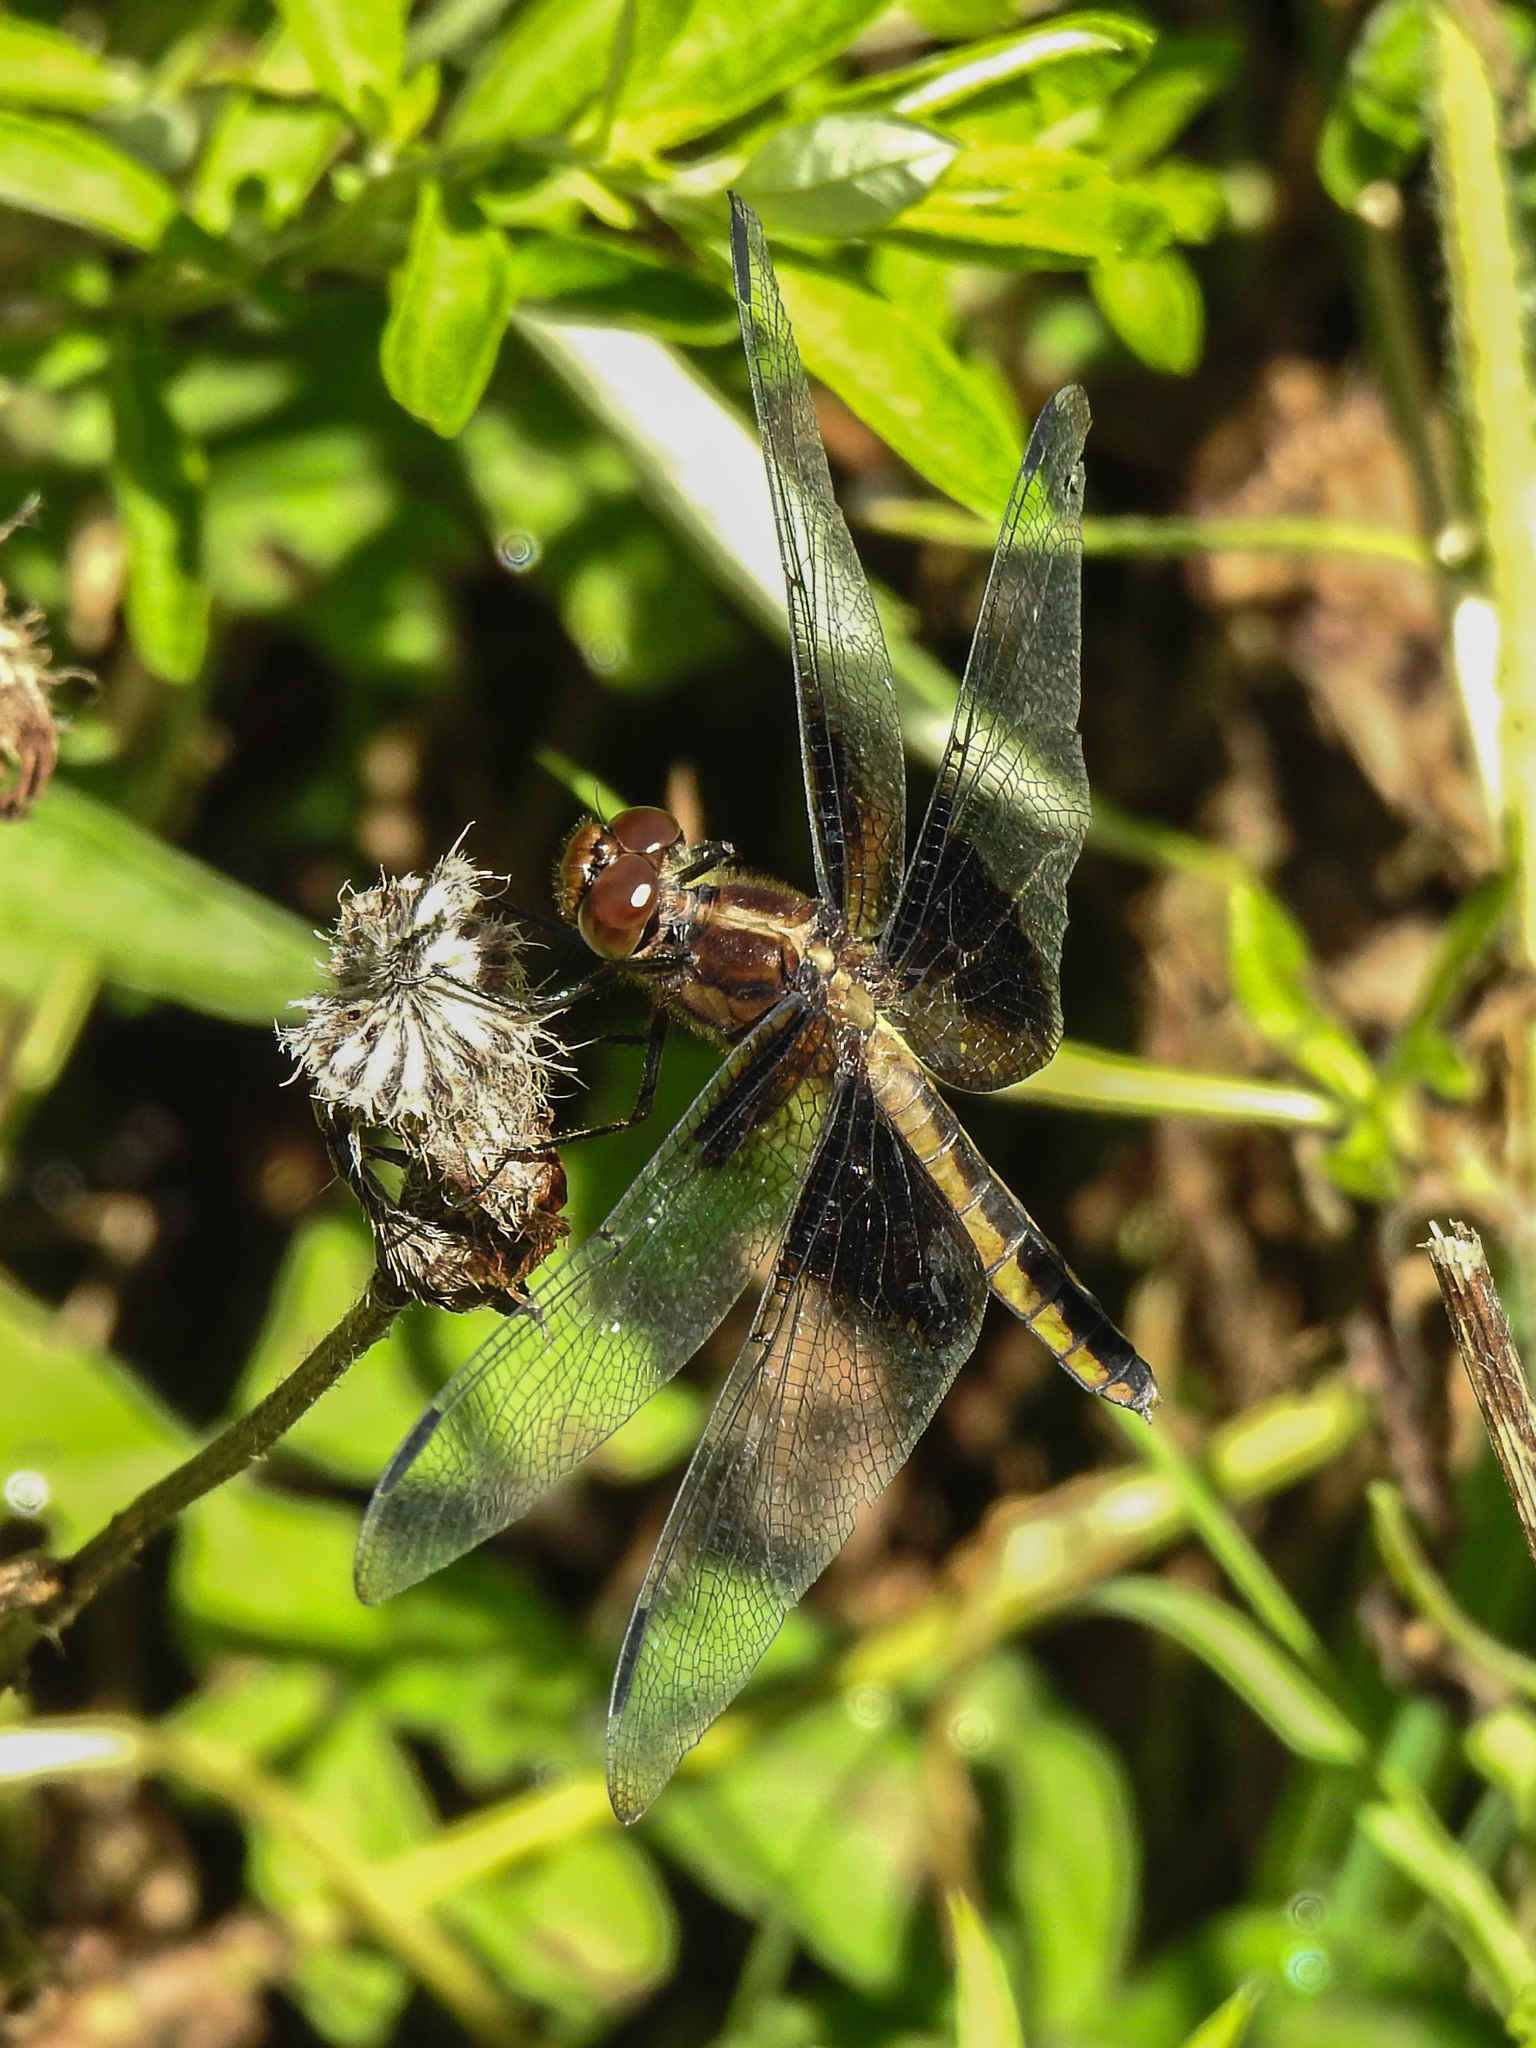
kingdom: Animalia
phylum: Arthropoda
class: Insecta
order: Odonata
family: Libellulidae
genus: Libellula
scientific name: Libellula luctuosa
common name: Widow skimmer
